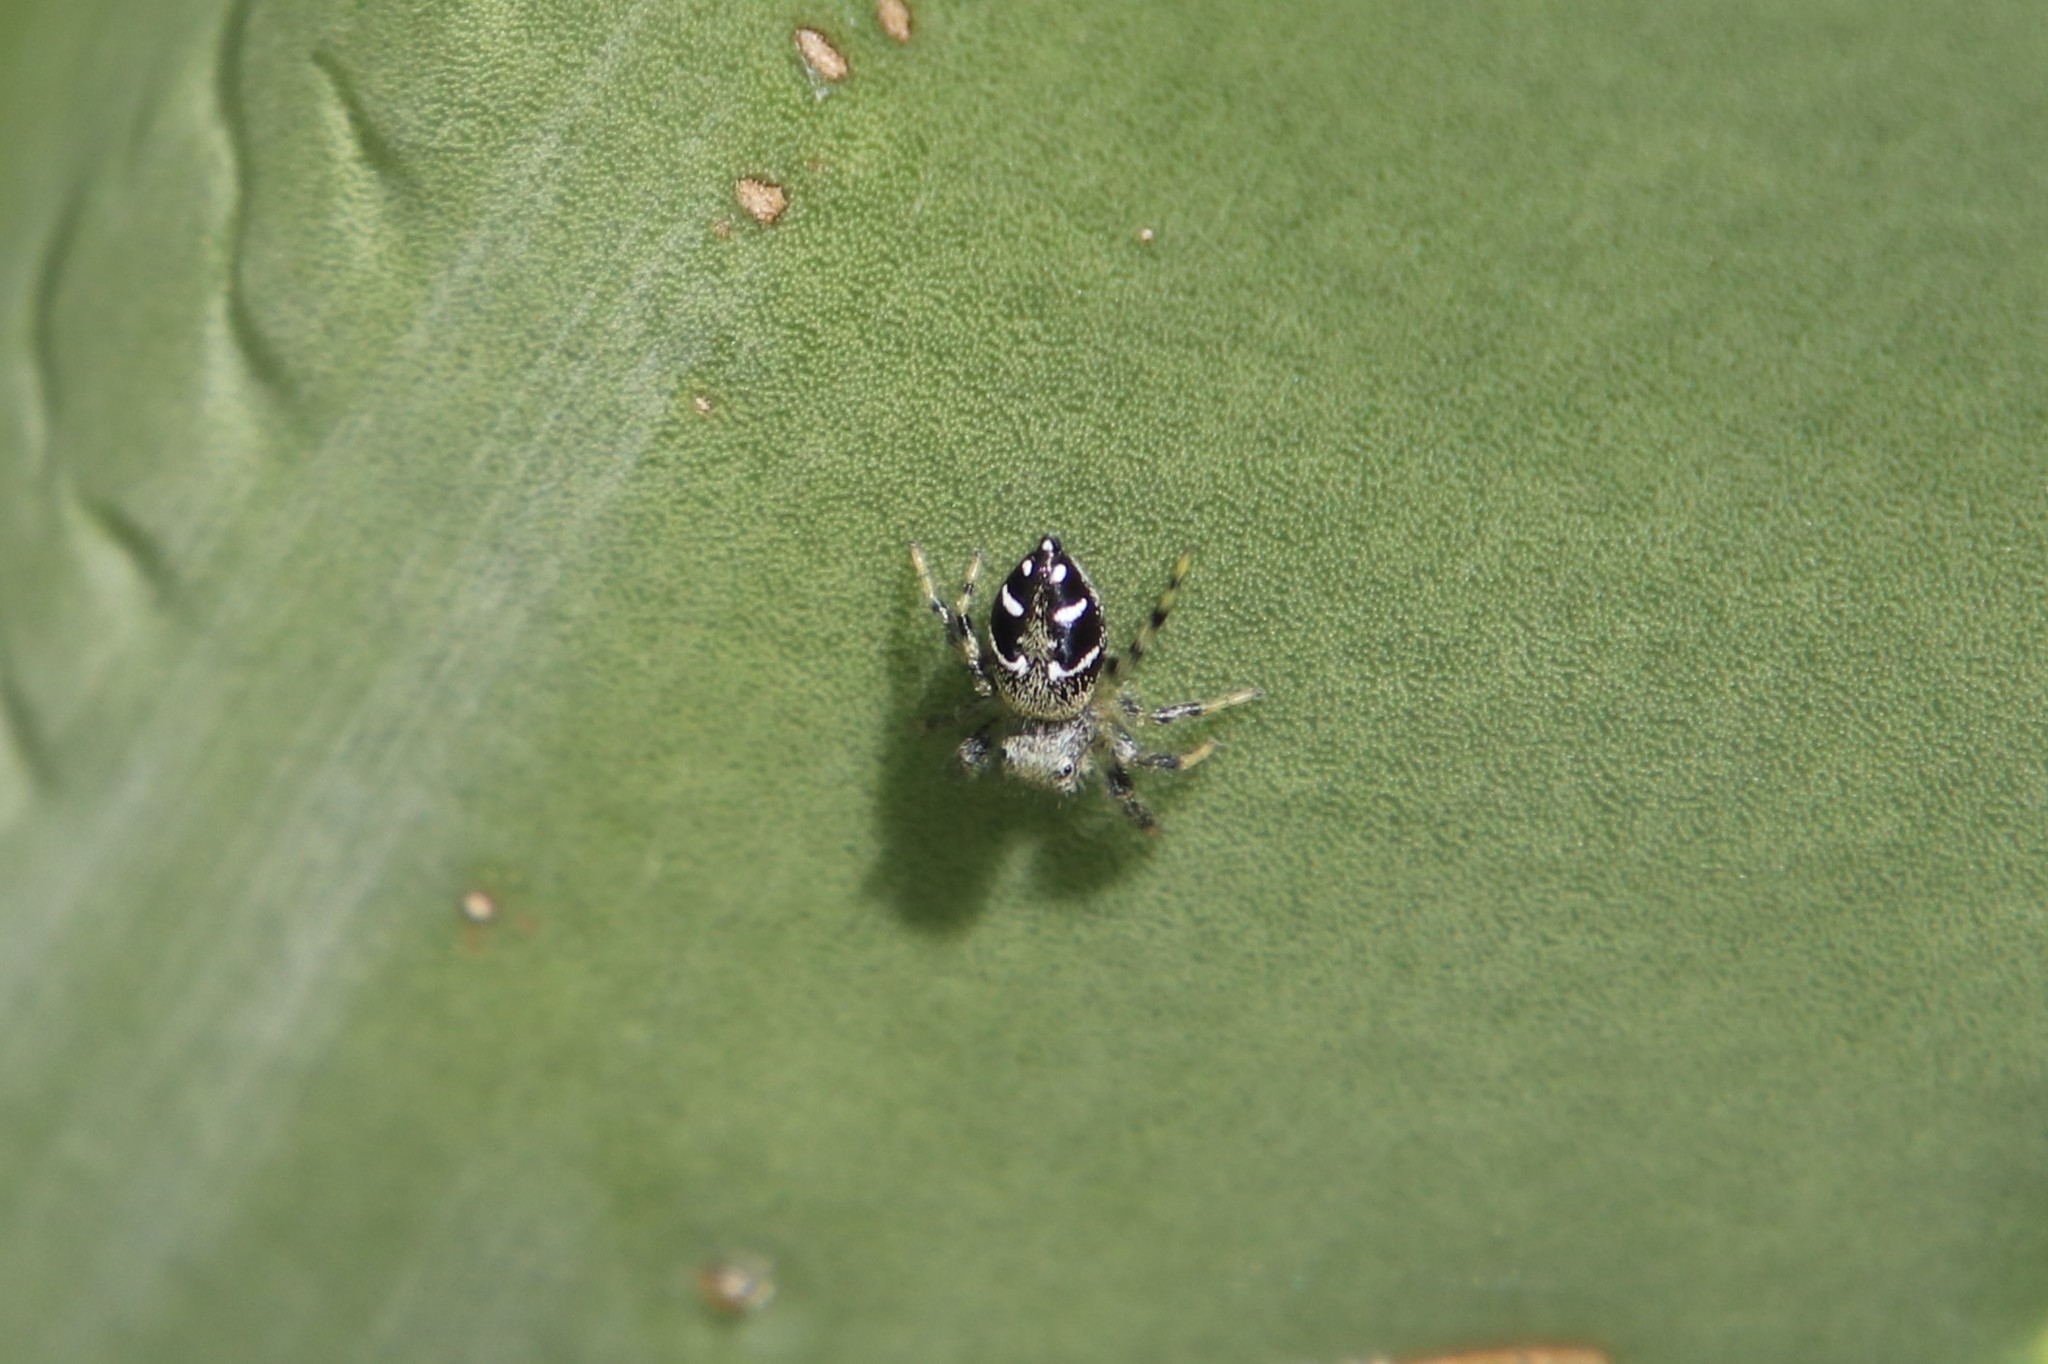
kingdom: Animalia
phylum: Arthropoda
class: Arachnida
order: Araneae
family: Salticidae
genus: Paraphidippus
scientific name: Paraphidippus basalis
